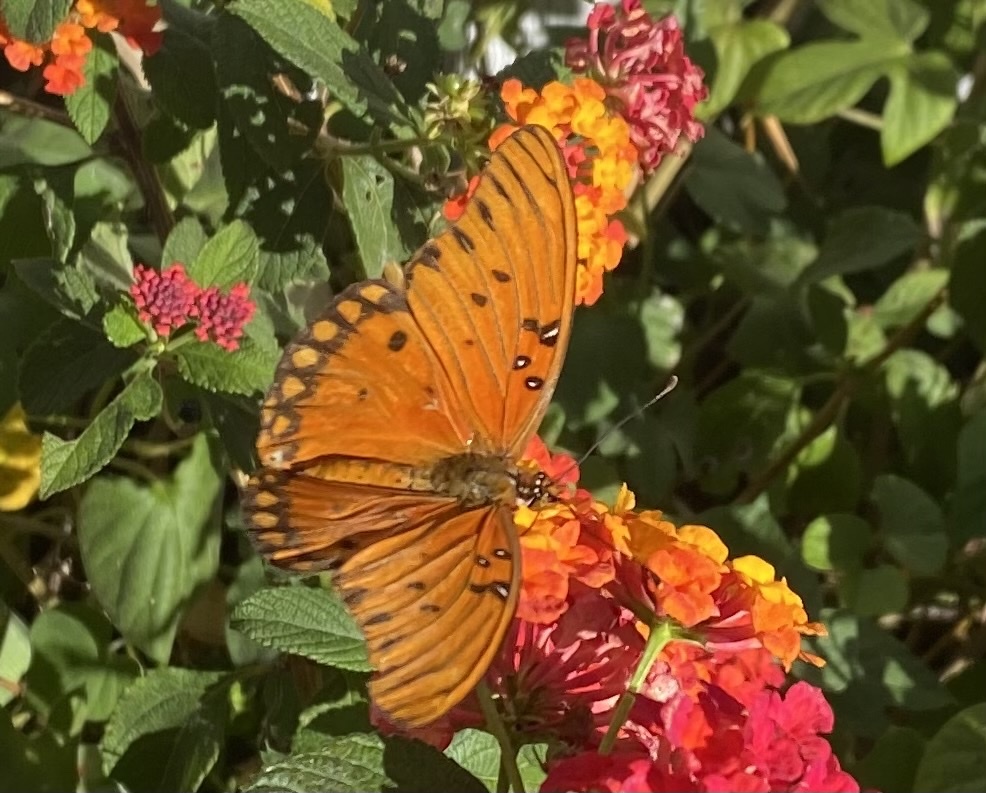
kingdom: Animalia
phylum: Arthropoda
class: Insecta
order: Lepidoptera
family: Nymphalidae
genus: Dione
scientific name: Dione vanillae
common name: Gulf fritillary
